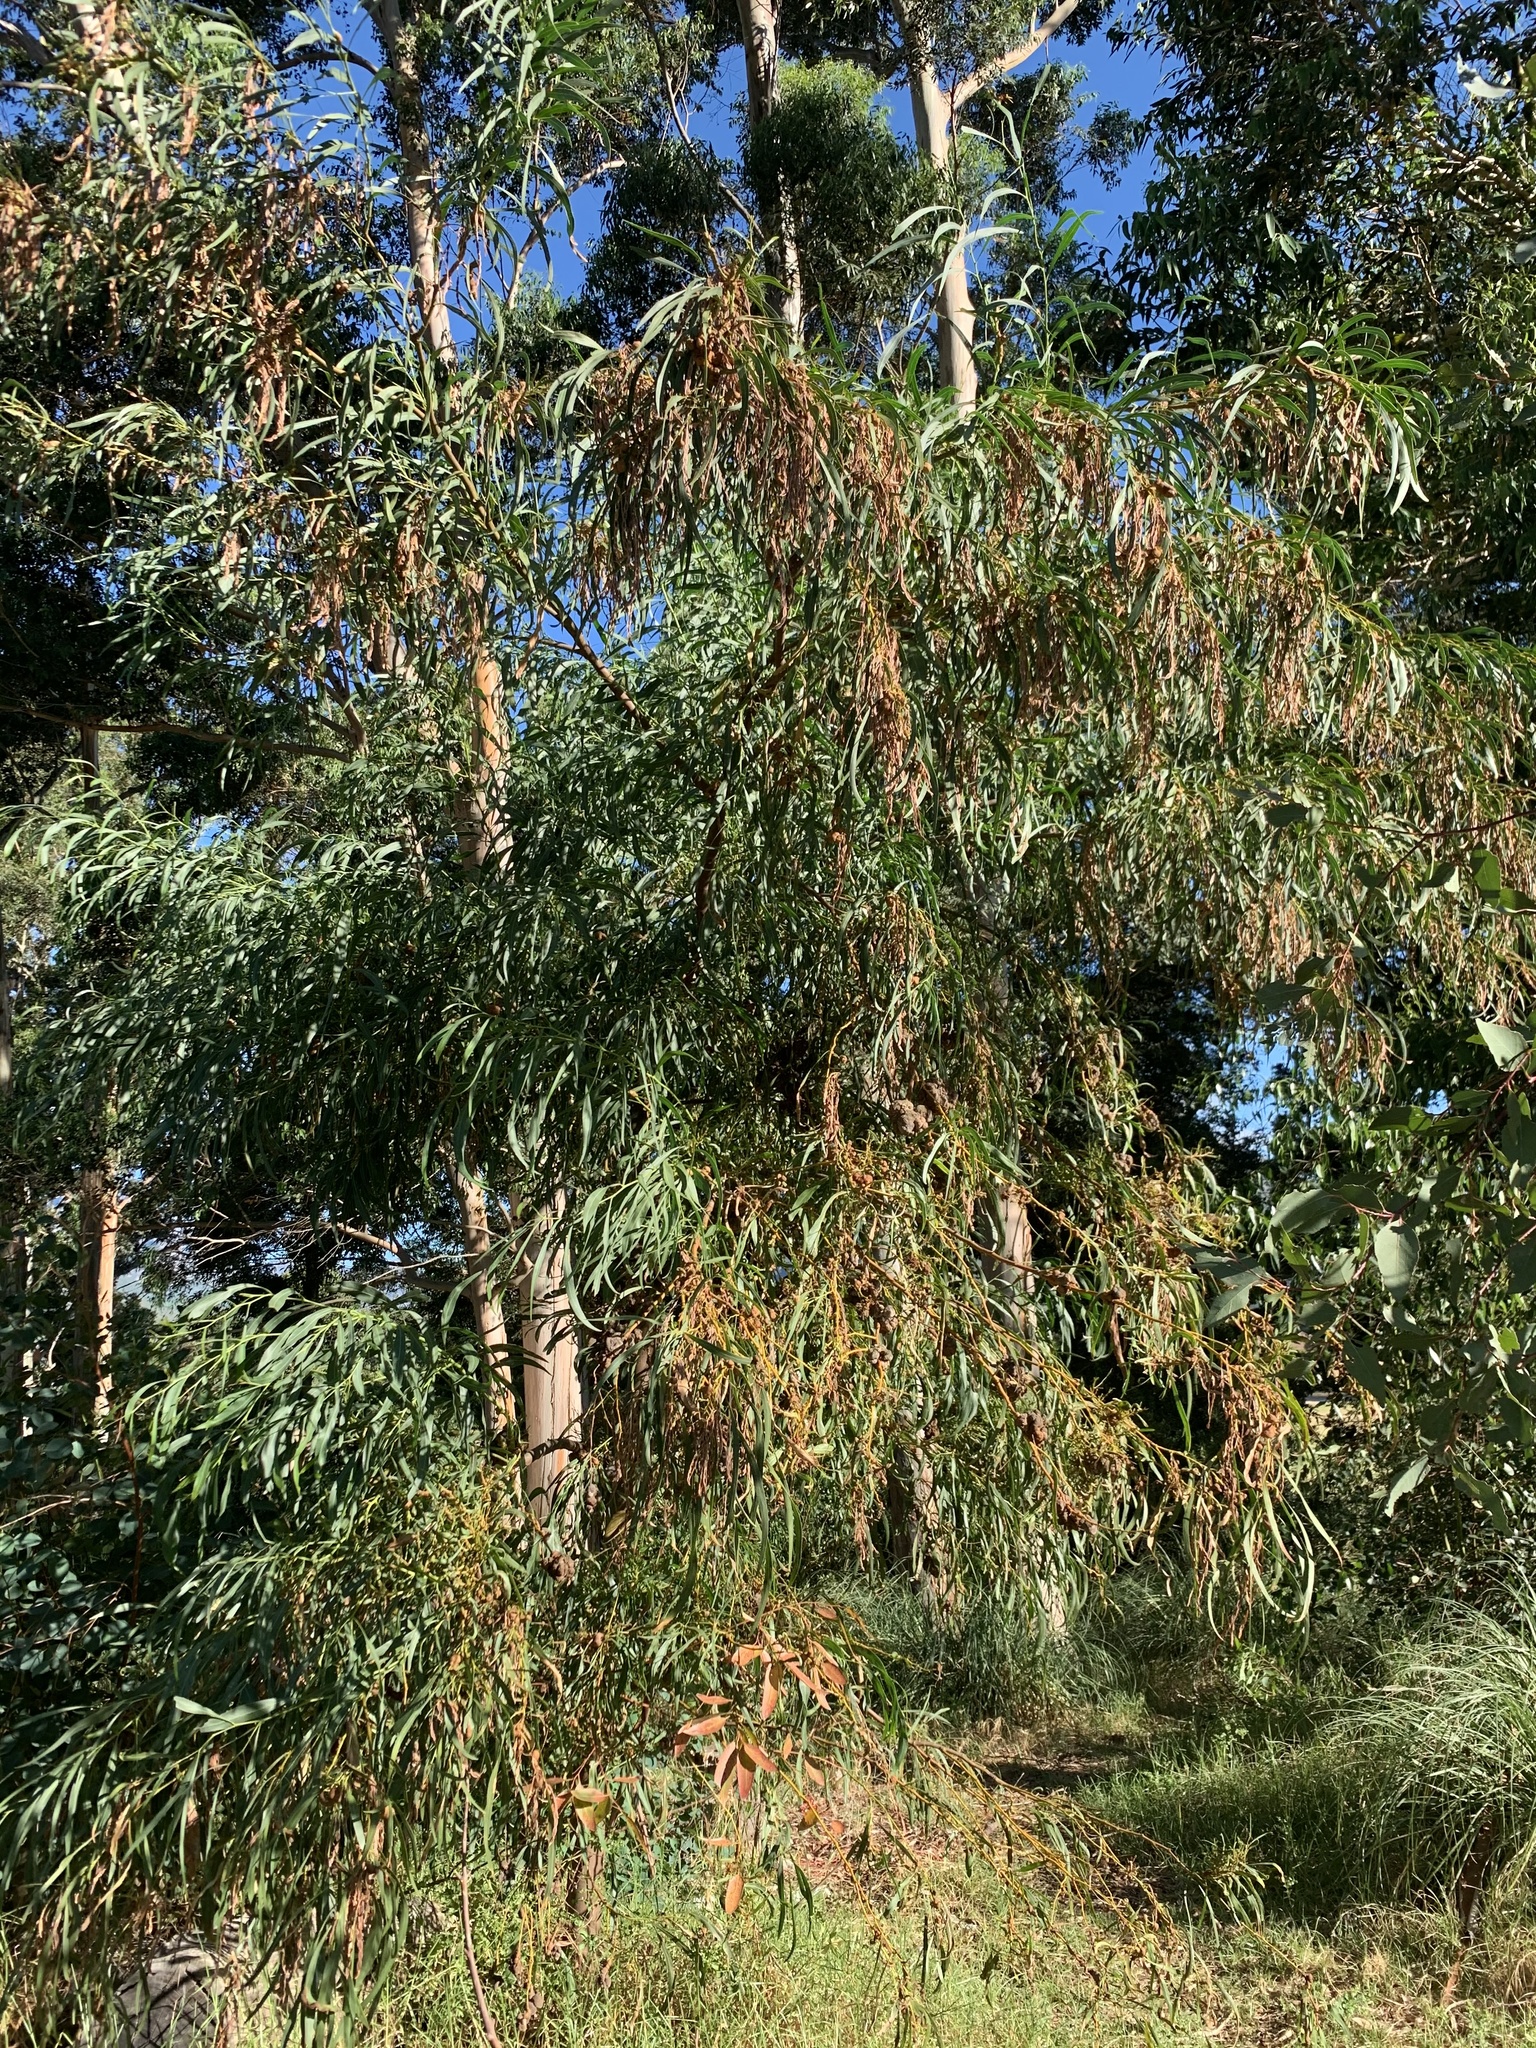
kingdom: Plantae
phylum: Tracheophyta
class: Magnoliopsida
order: Fabales
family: Fabaceae
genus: Acacia
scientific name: Acacia saligna
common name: Orange wattle
